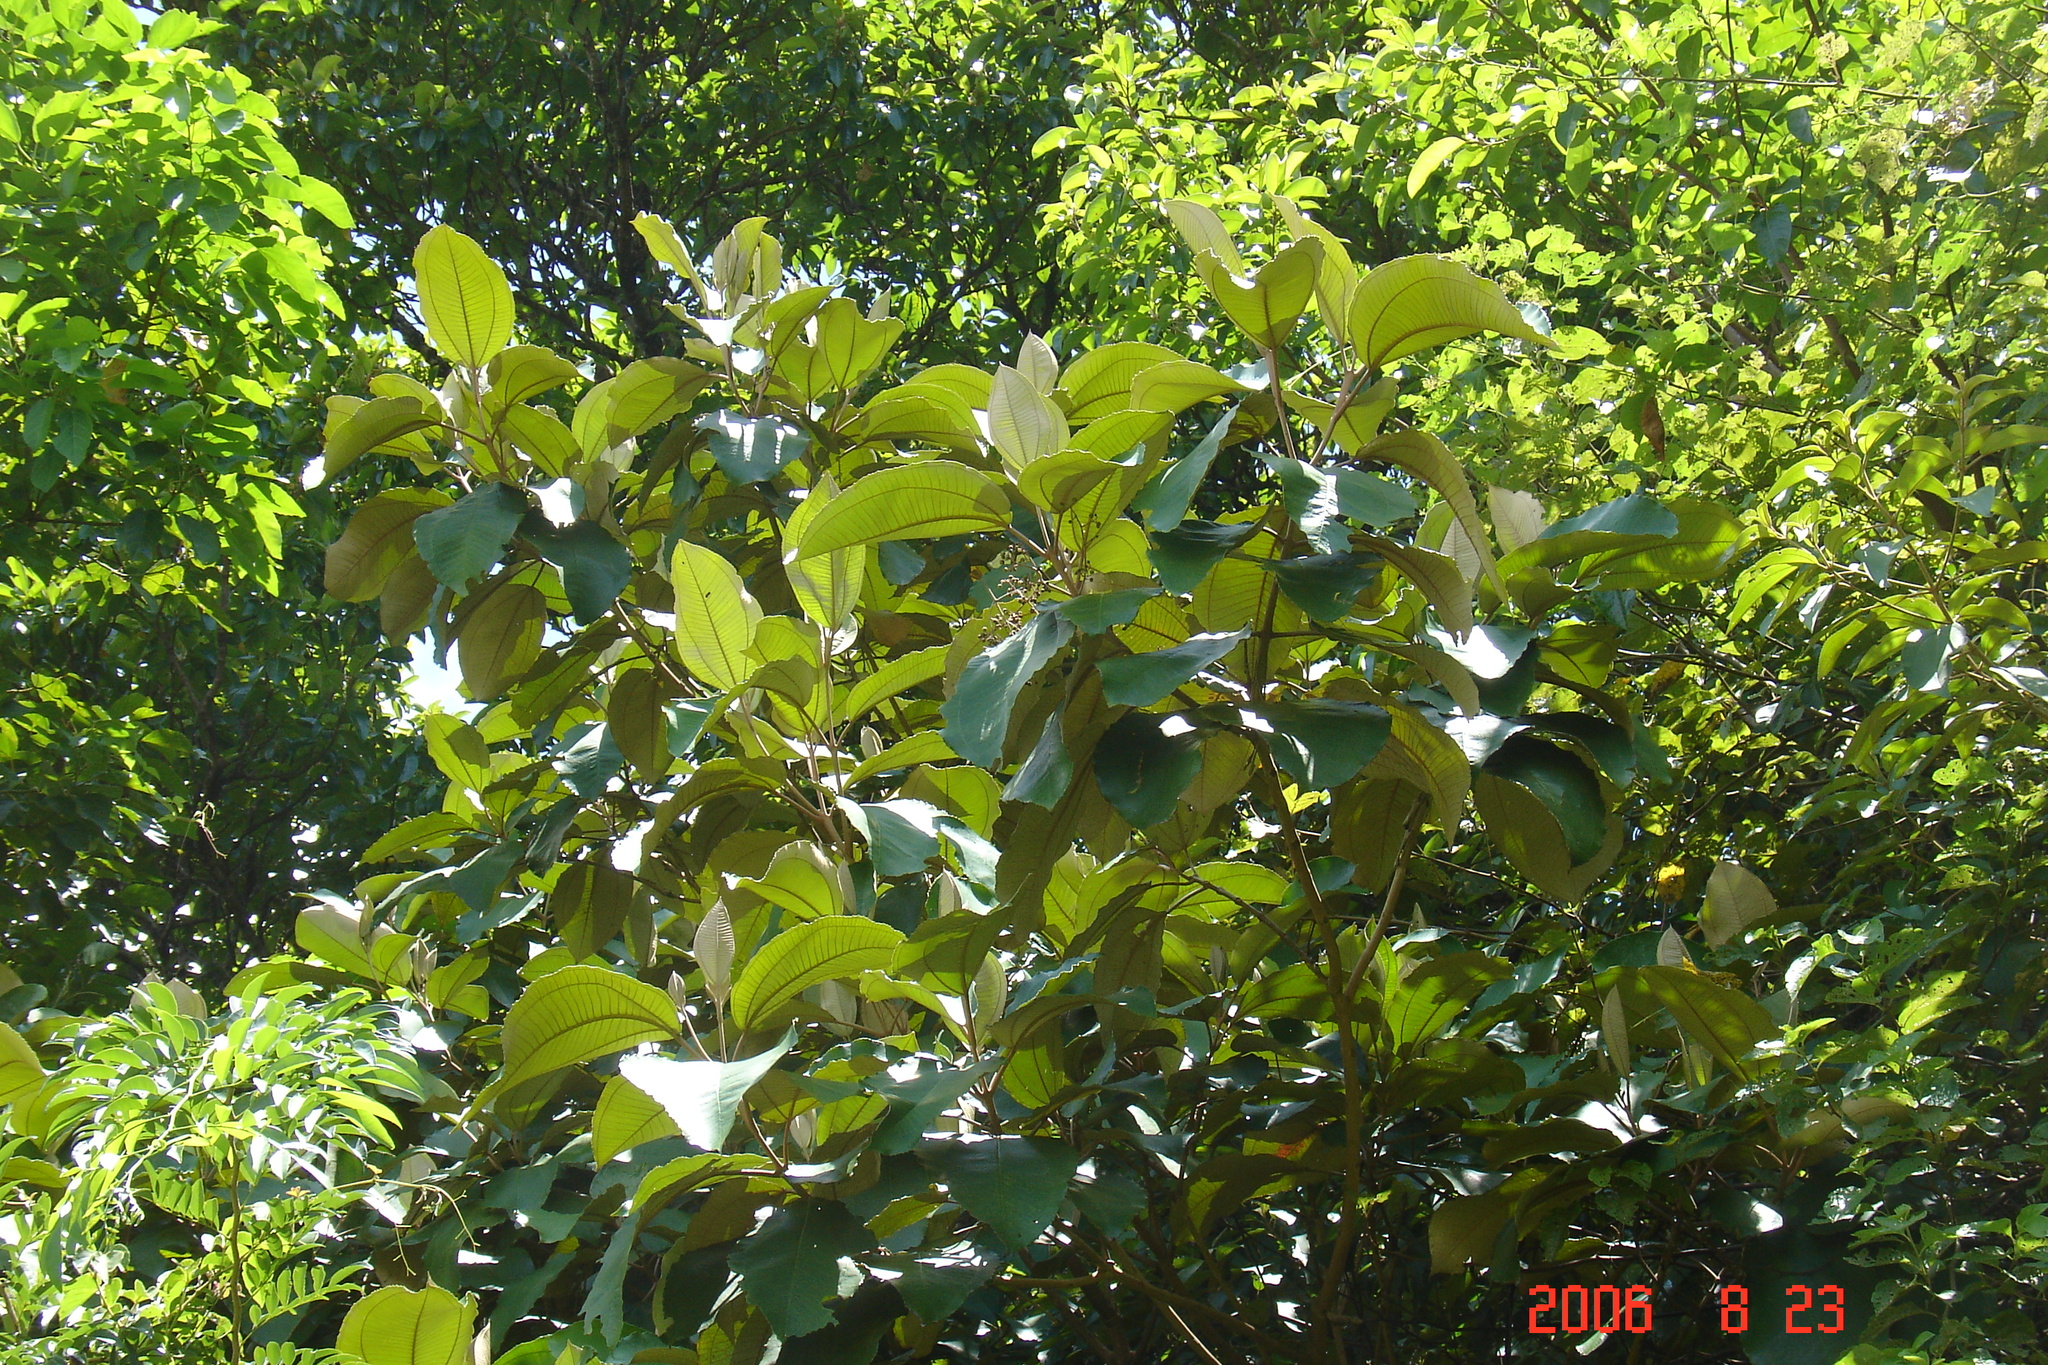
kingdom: Plantae
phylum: Tracheophyta
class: Magnoliopsida
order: Myrtales
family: Melastomataceae
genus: Miconia
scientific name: Miconia argentea
